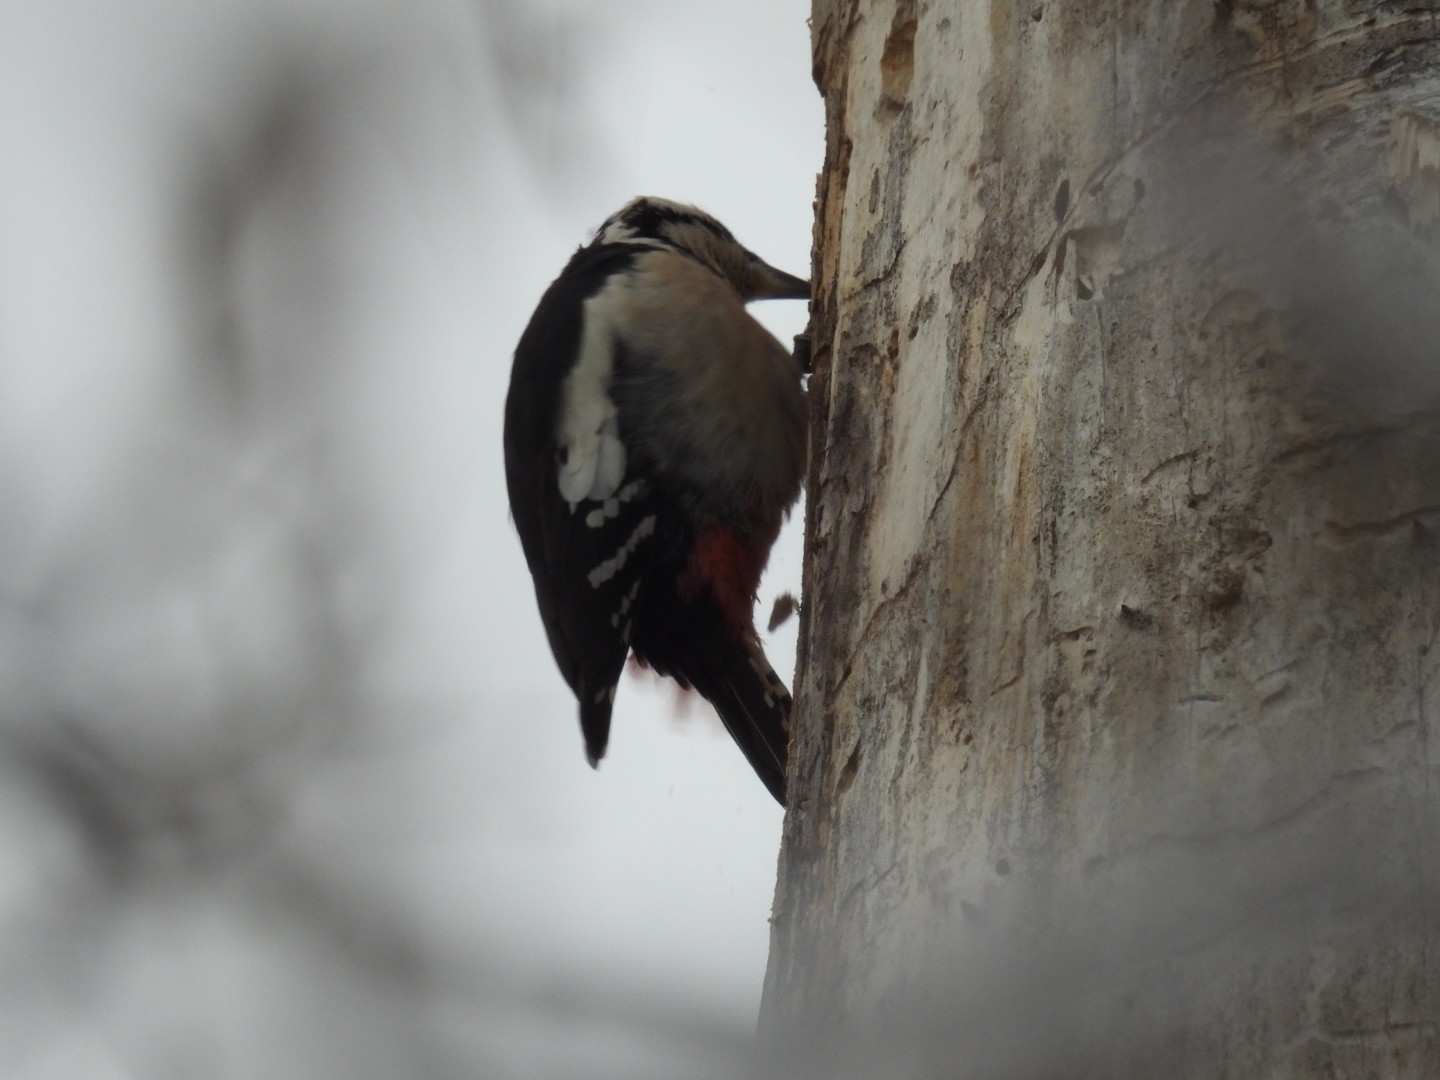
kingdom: Animalia
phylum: Chordata
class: Aves
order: Piciformes
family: Picidae
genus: Dendrocopos
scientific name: Dendrocopos major
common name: Great spotted woodpecker
